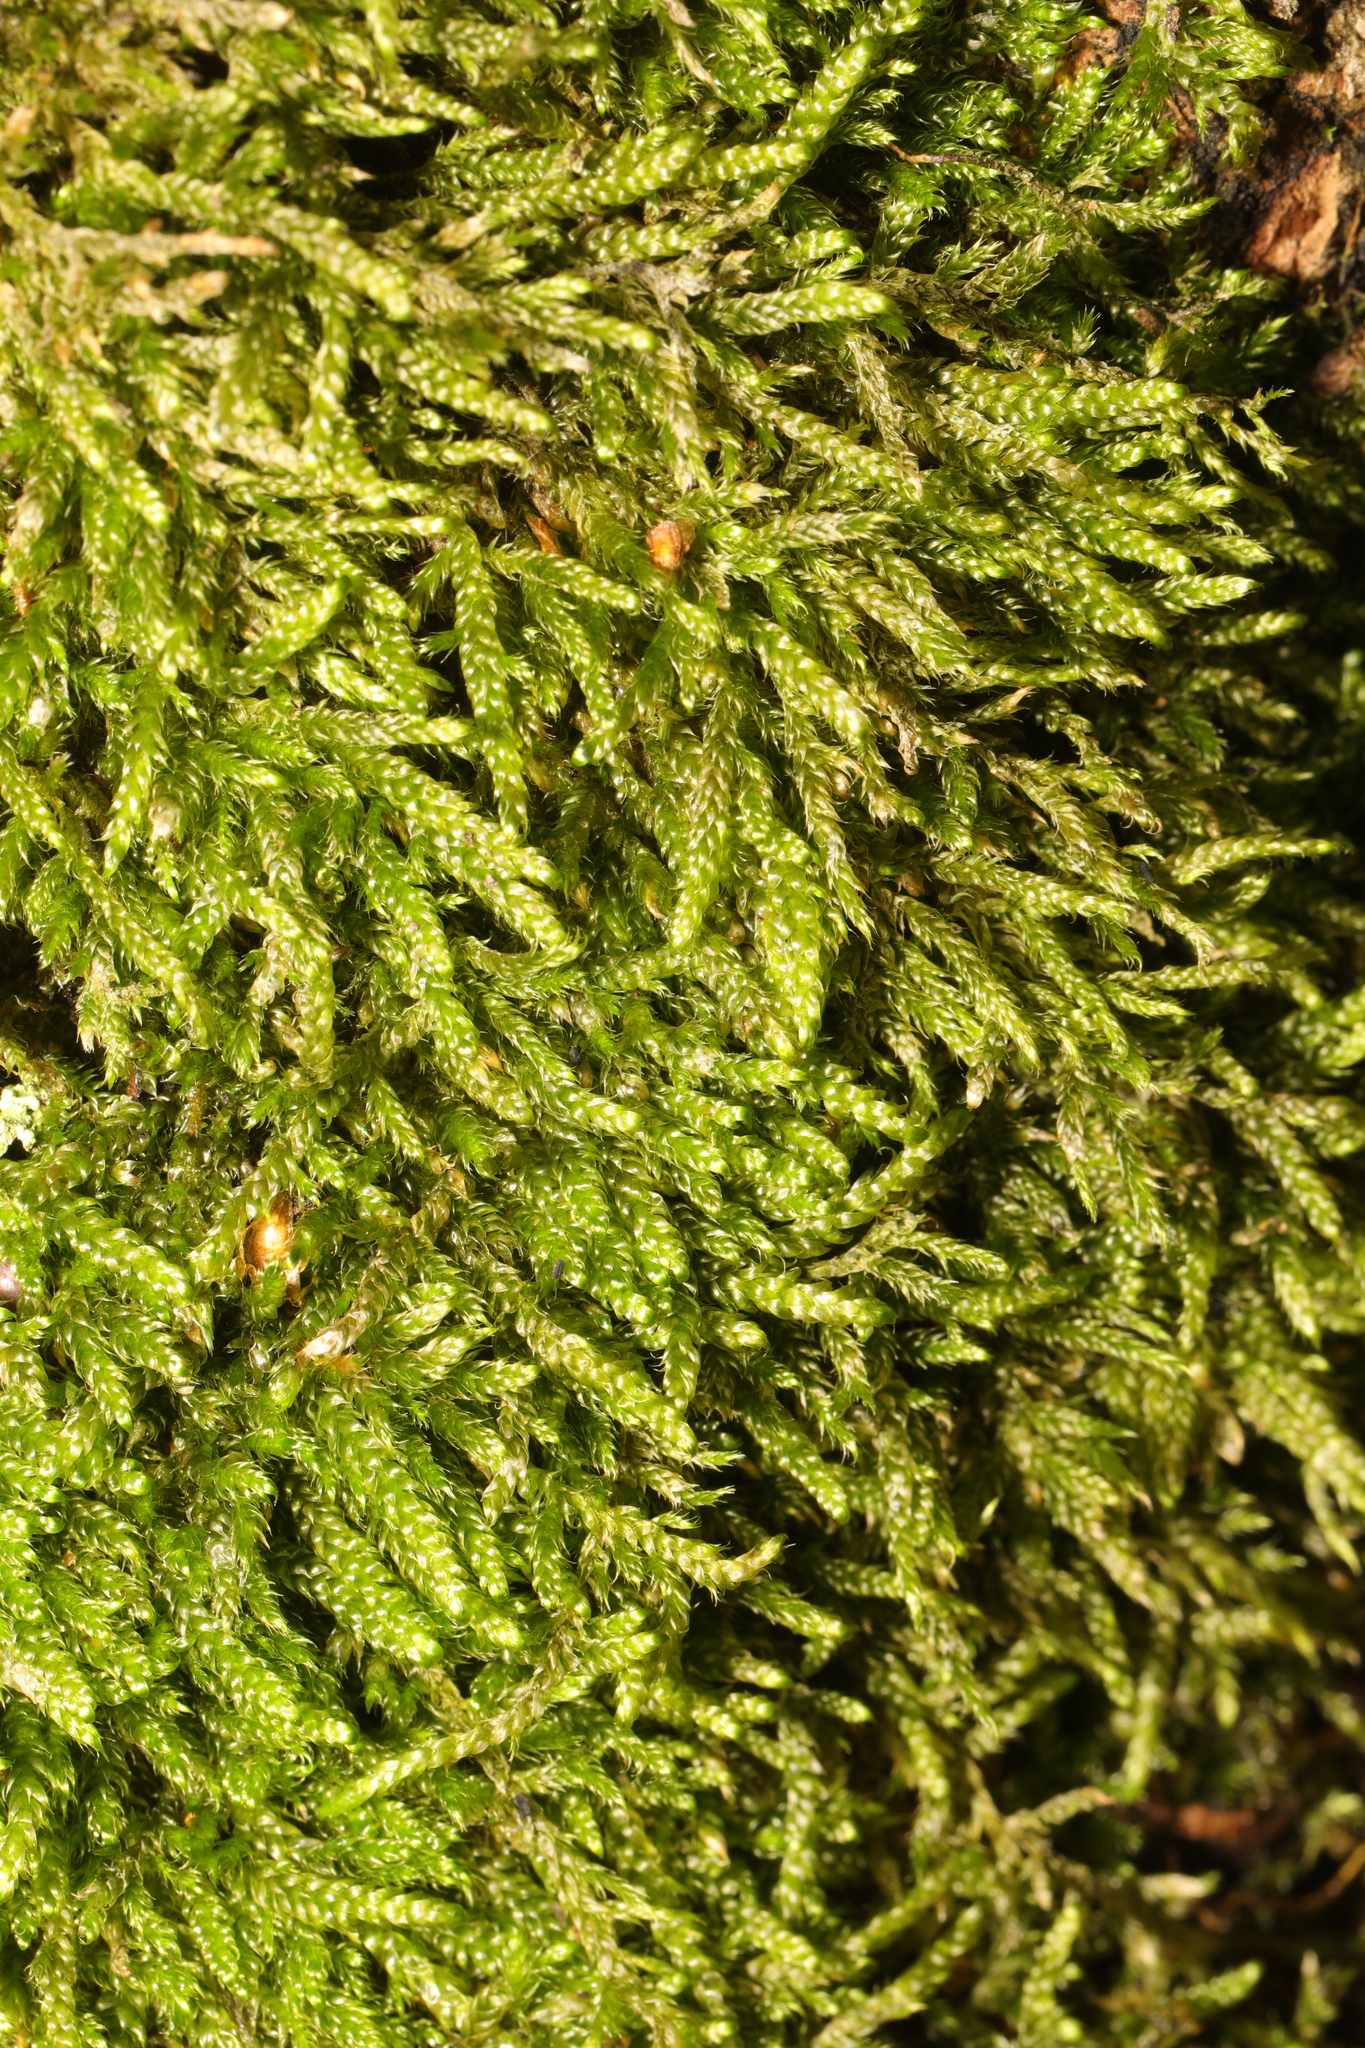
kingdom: Plantae
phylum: Bryophyta
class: Bryopsida
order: Hypnales
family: Hypnaceae
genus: Hypnum
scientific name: Hypnum cupressiforme
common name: Cypress-leaved plait-moss
